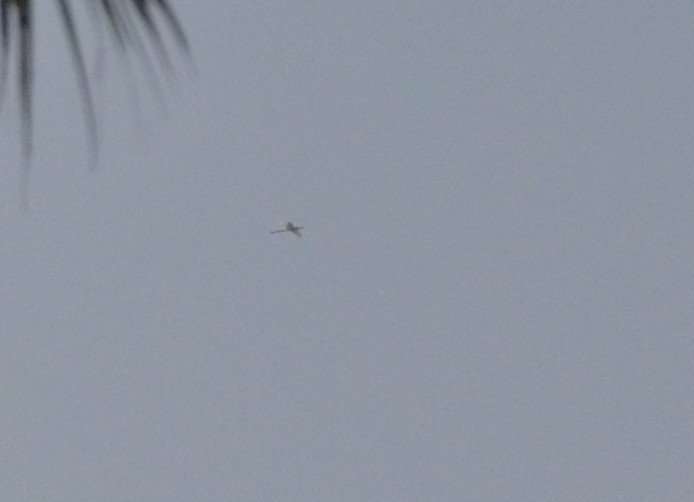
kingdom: Animalia
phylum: Chordata
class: Aves
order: Pelecaniformes
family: Threskiornithidae
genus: Platalea
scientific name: Platalea leucorodia
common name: Eurasian spoonbill
